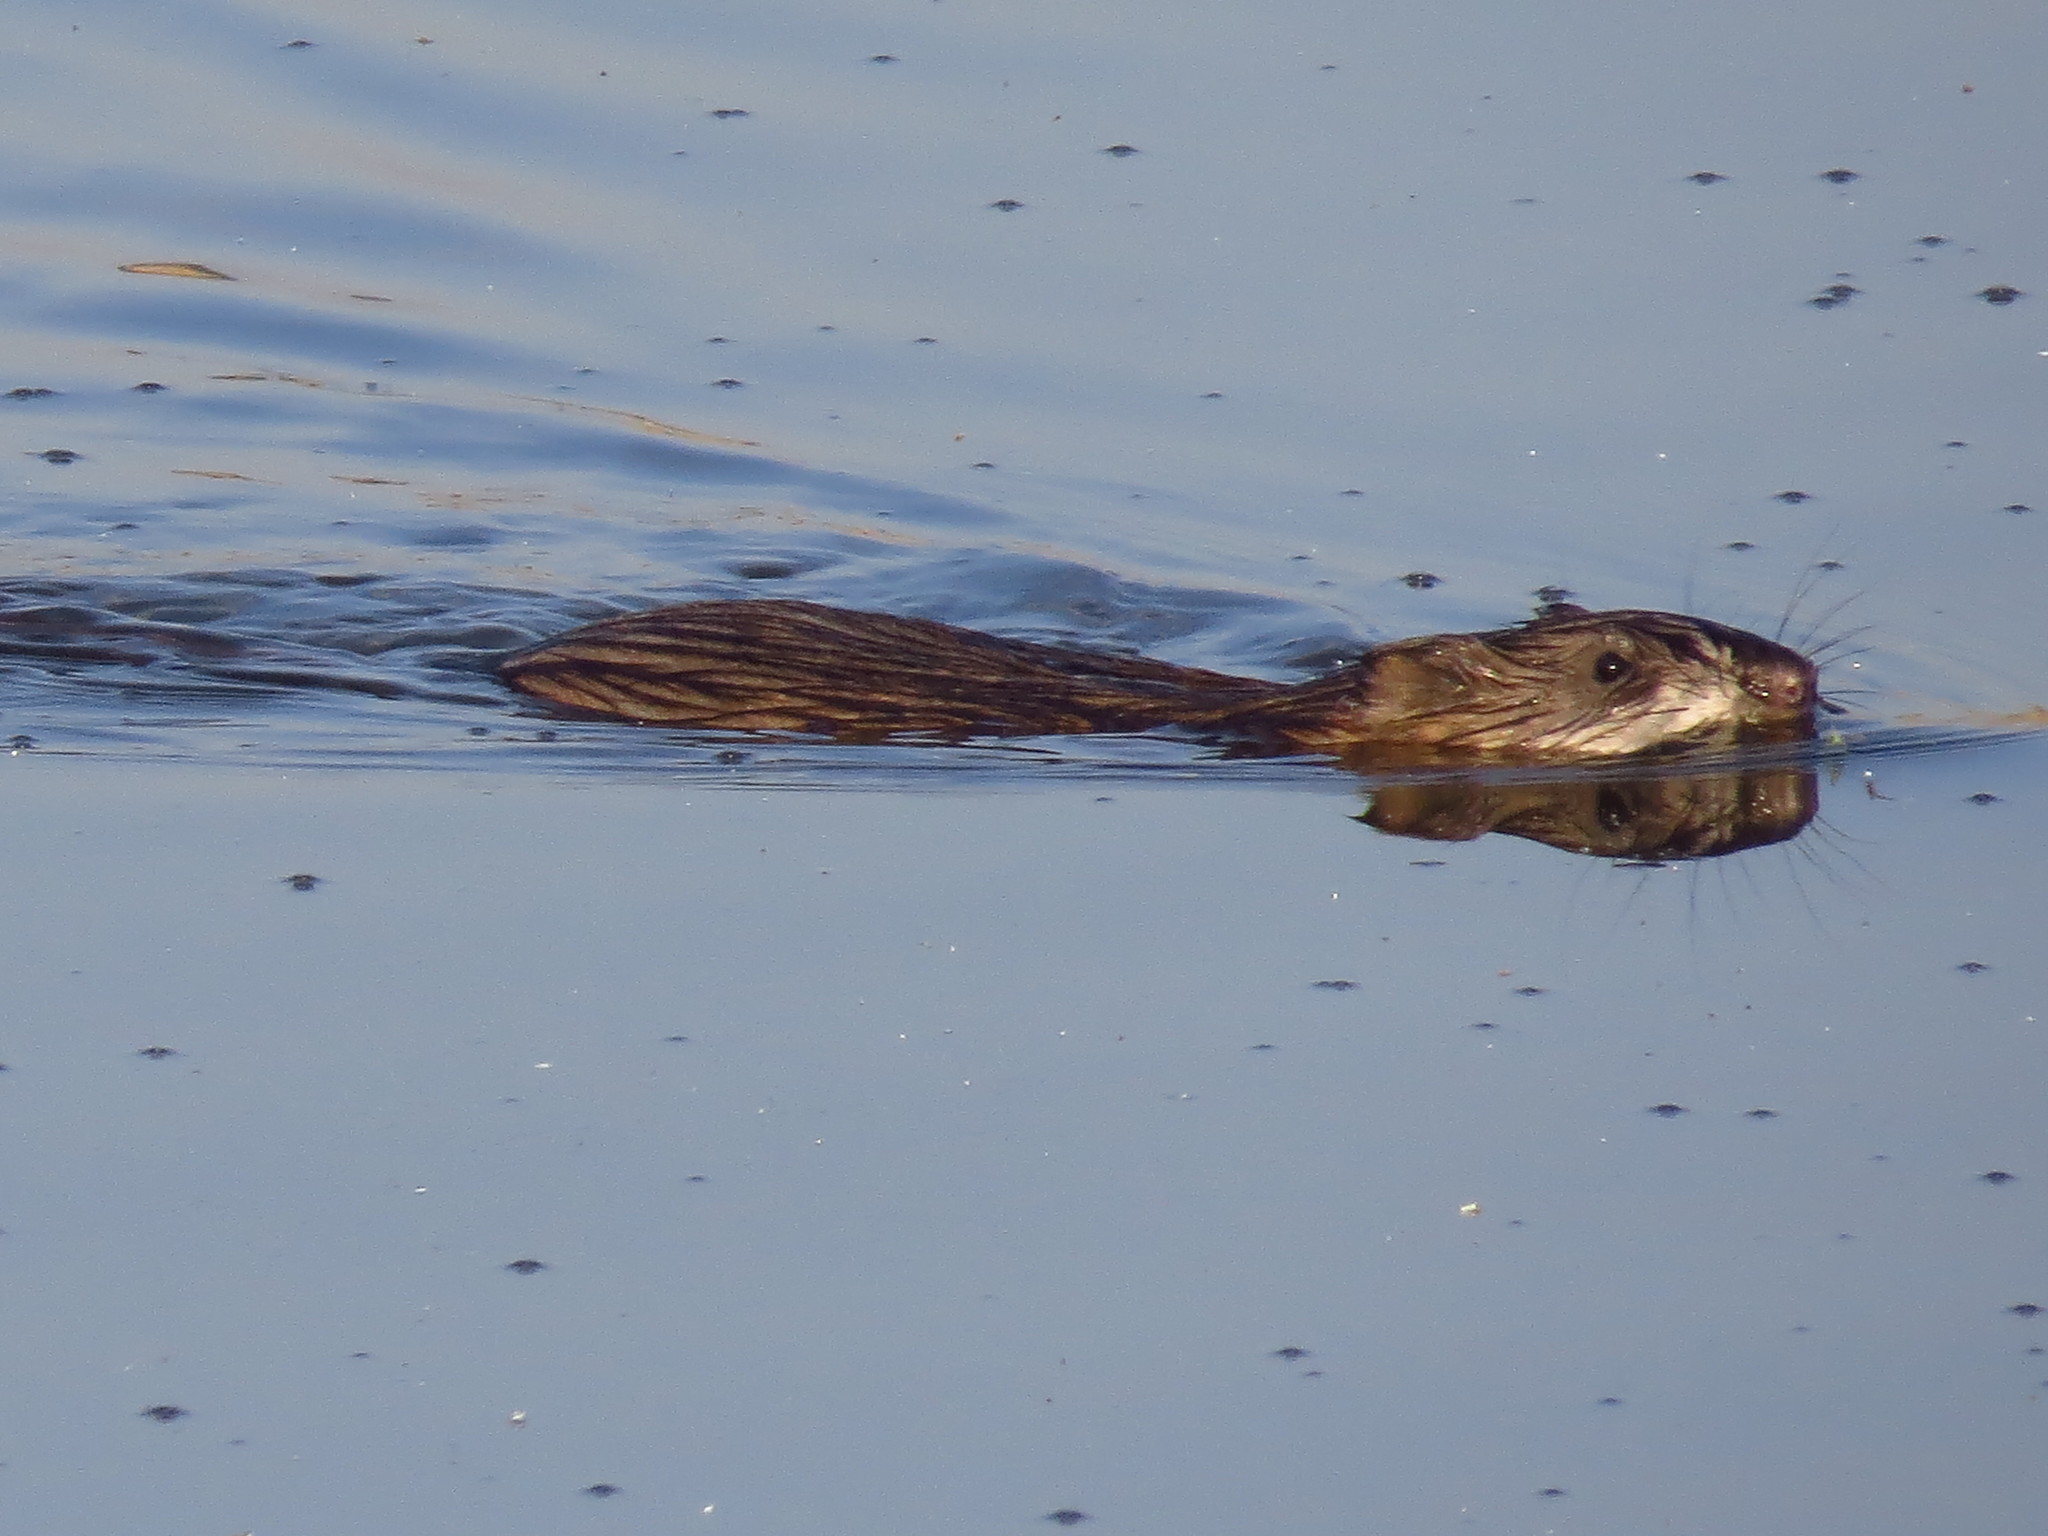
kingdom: Animalia
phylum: Chordata
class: Mammalia
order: Rodentia
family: Cricetidae
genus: Ondatra
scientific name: Ondatra zibethicus
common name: Muskrat
